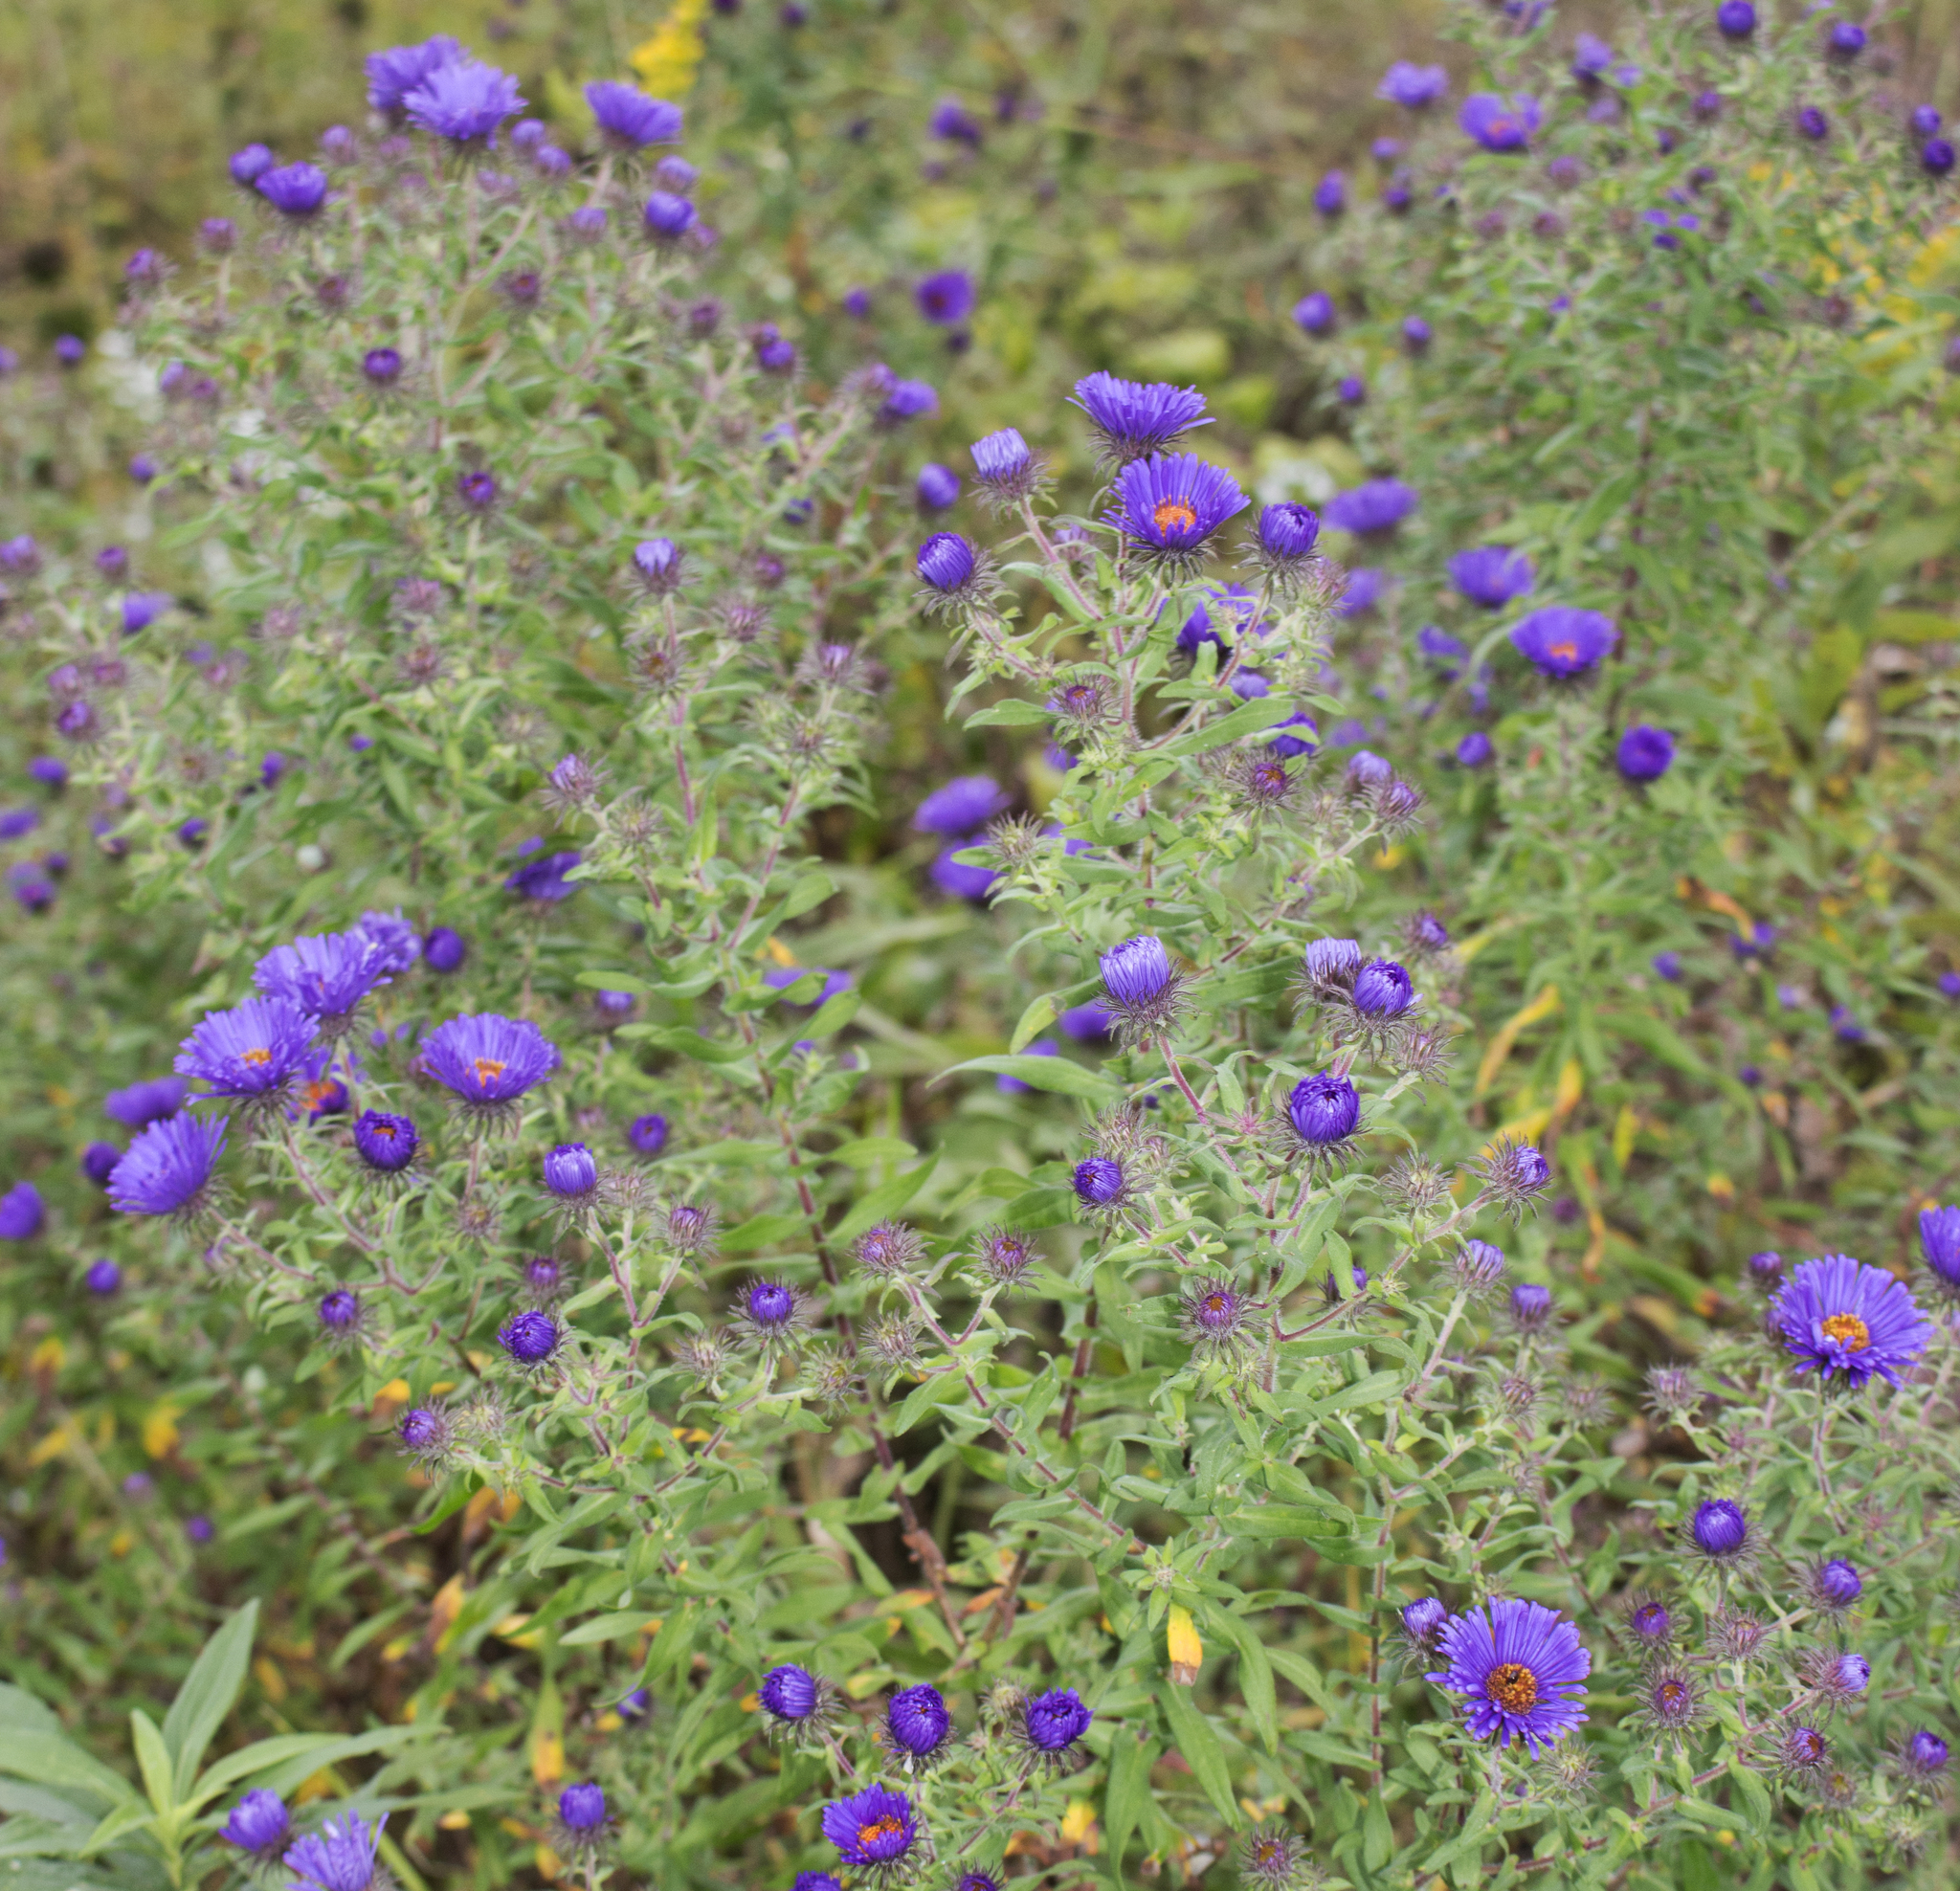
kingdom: Plantae
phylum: Tracheophyta
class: Magnoliopsida
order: Asterales
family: Asteraceae
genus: Symphyotrichum
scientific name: Symphyotrichum novae-angliae
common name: Michaelmas daisy
